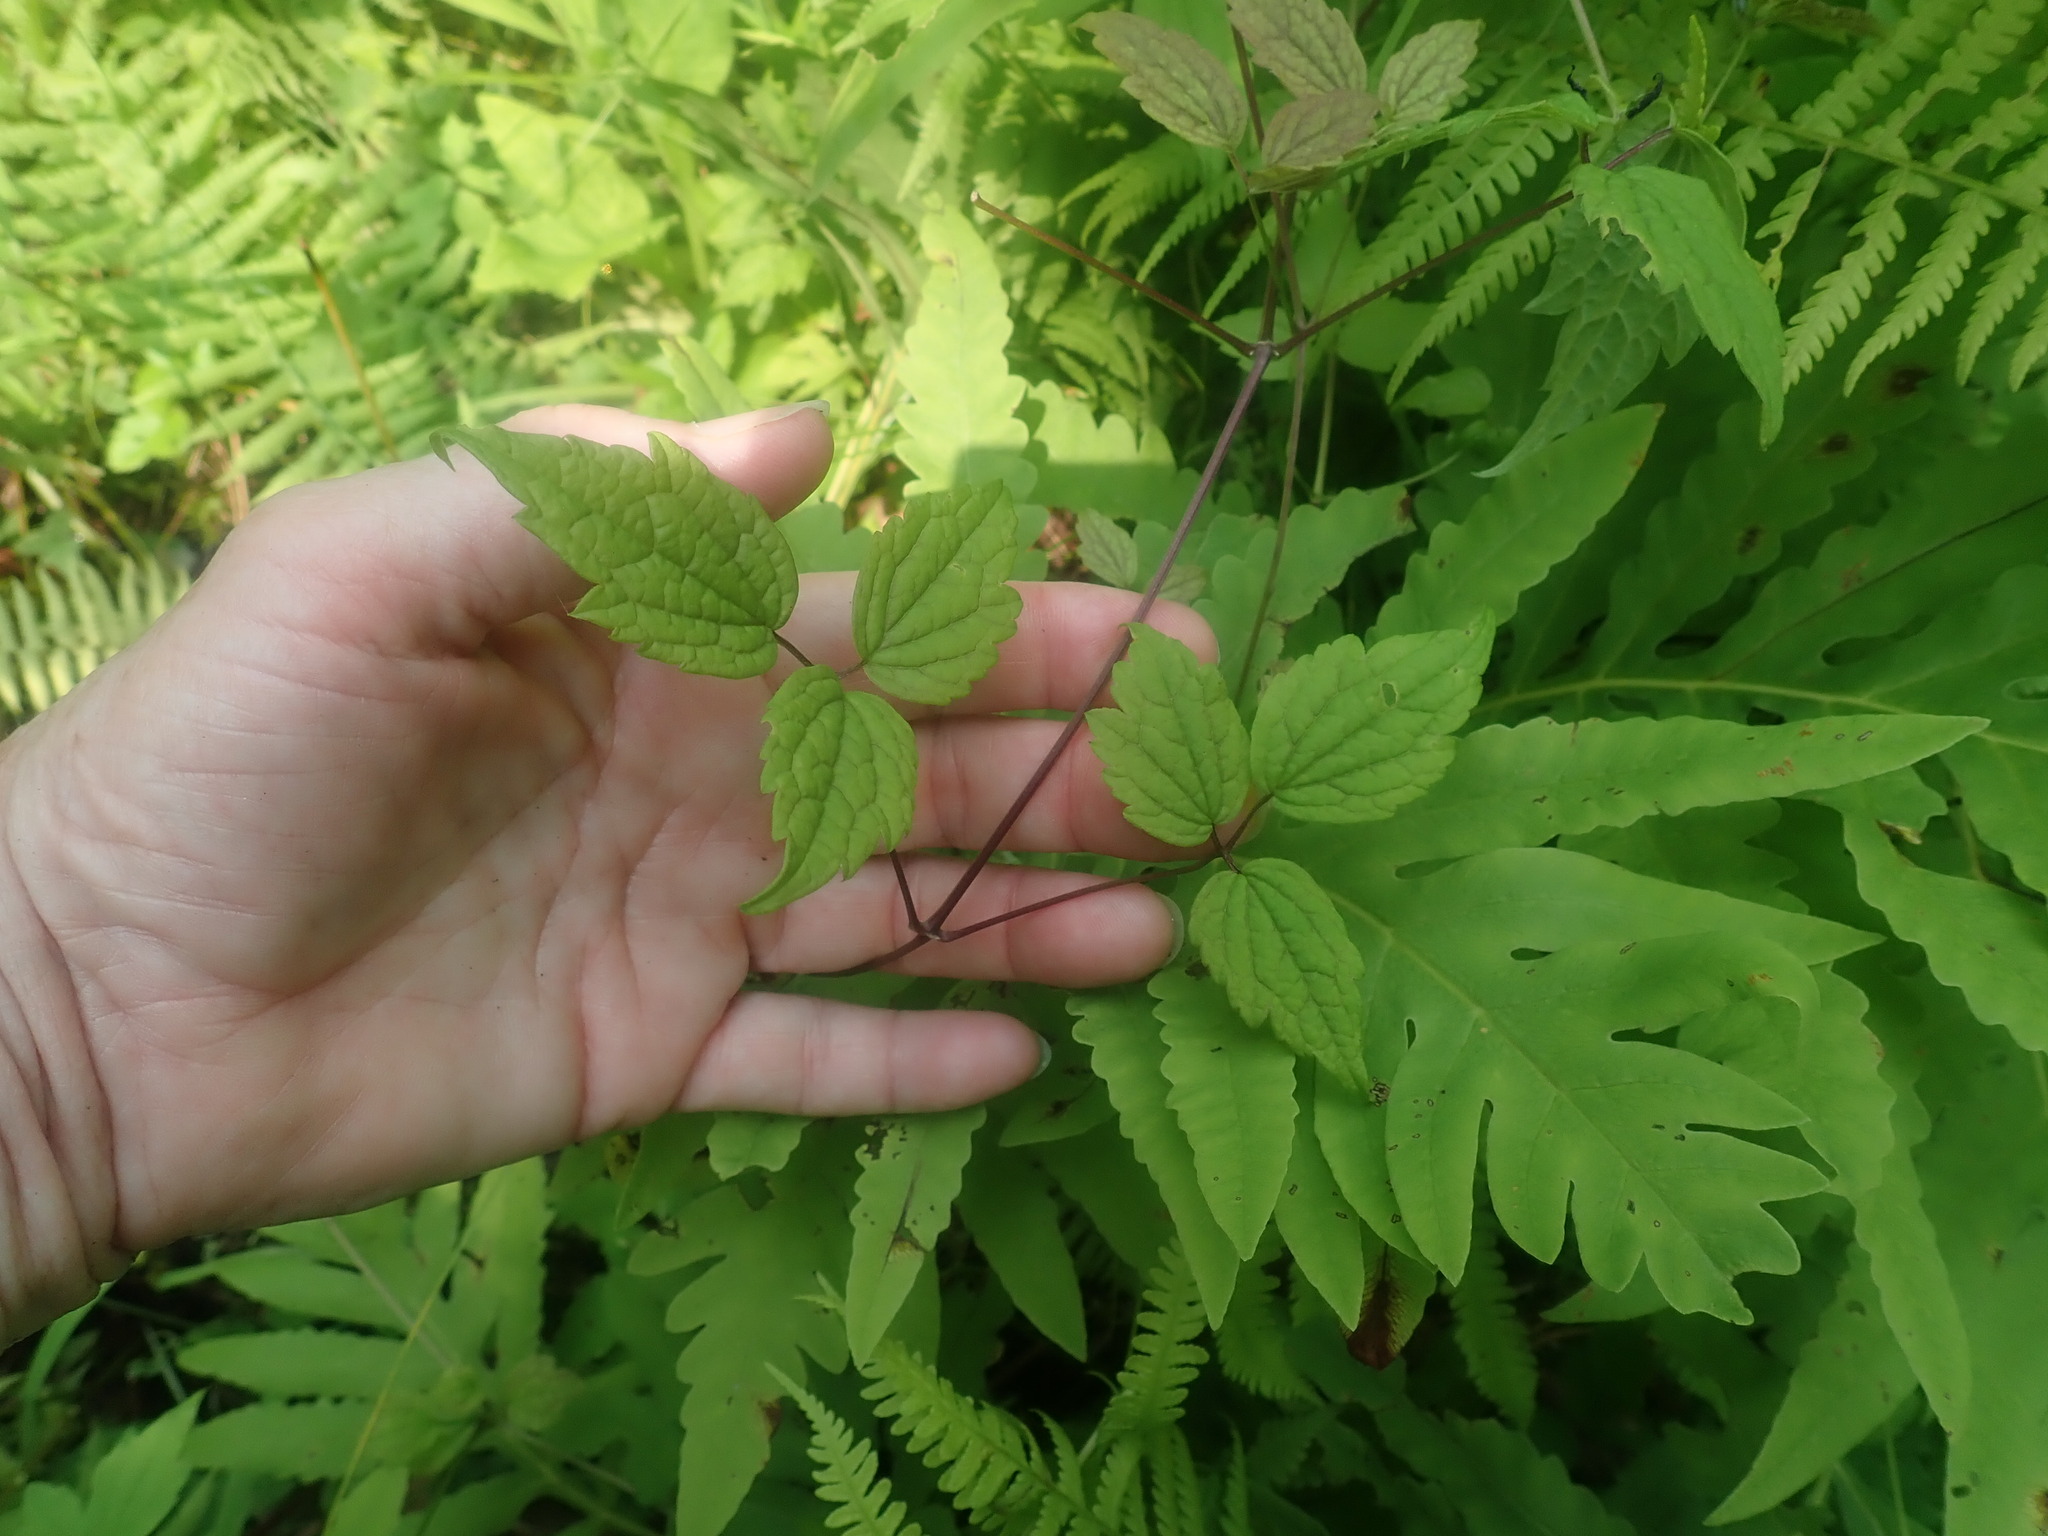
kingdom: Plantae
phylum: Tracheophyta
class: Magnoliopsida
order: Ranunculales
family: Ranunculaceae
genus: Clematis
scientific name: Clematis virginiana
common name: Virgin's-bower
